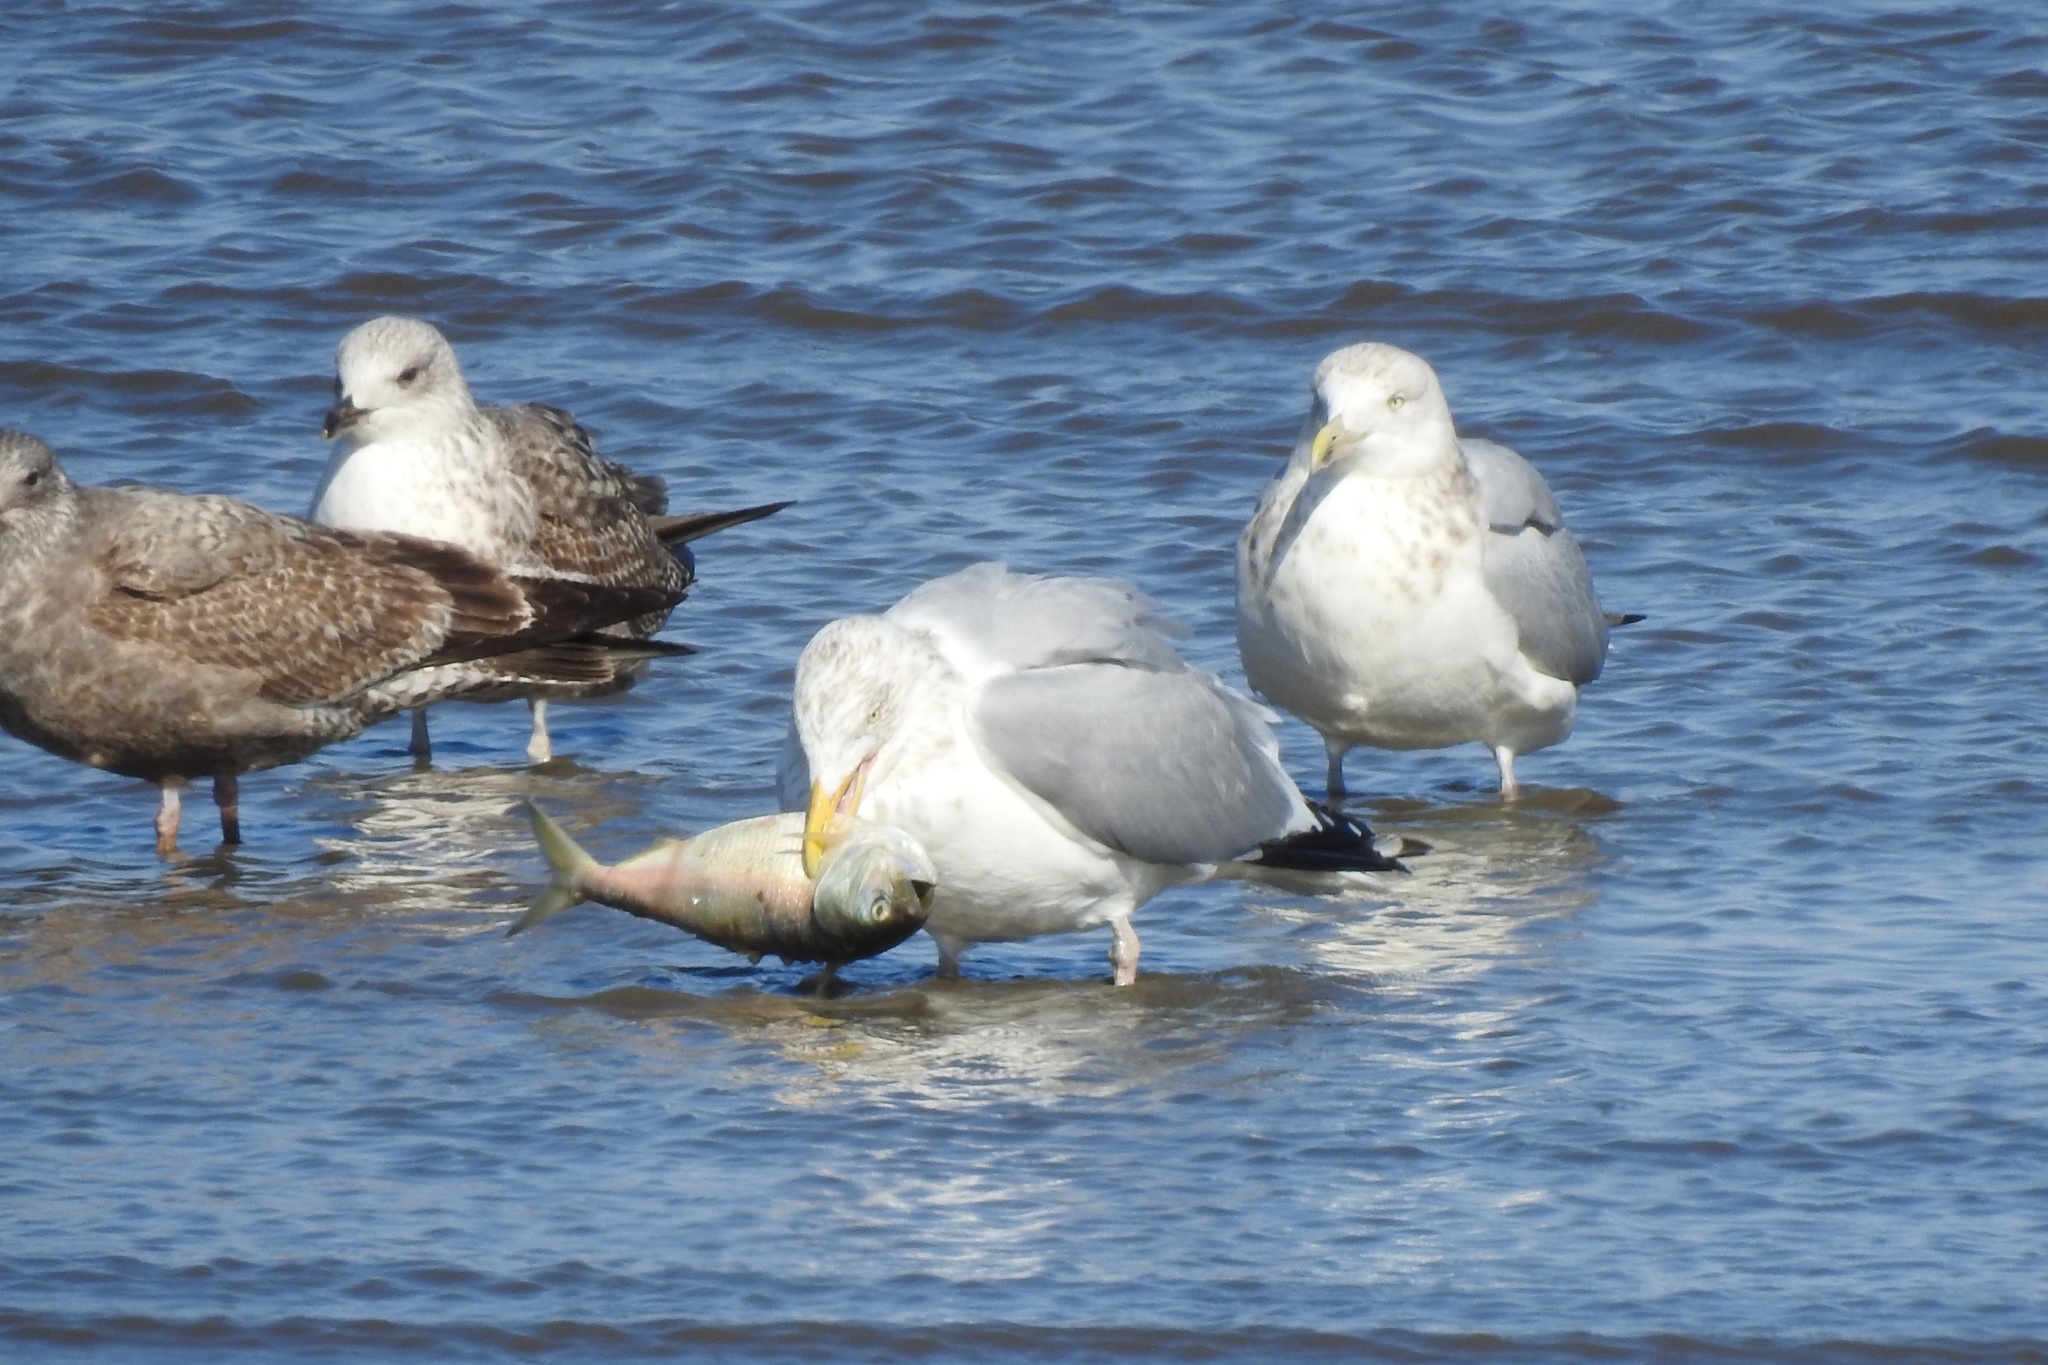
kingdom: Animalia
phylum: Chordata
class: Aves
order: Charadriiformes
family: Laridae
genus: Larus
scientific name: Larus argentatus
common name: Herring gull
